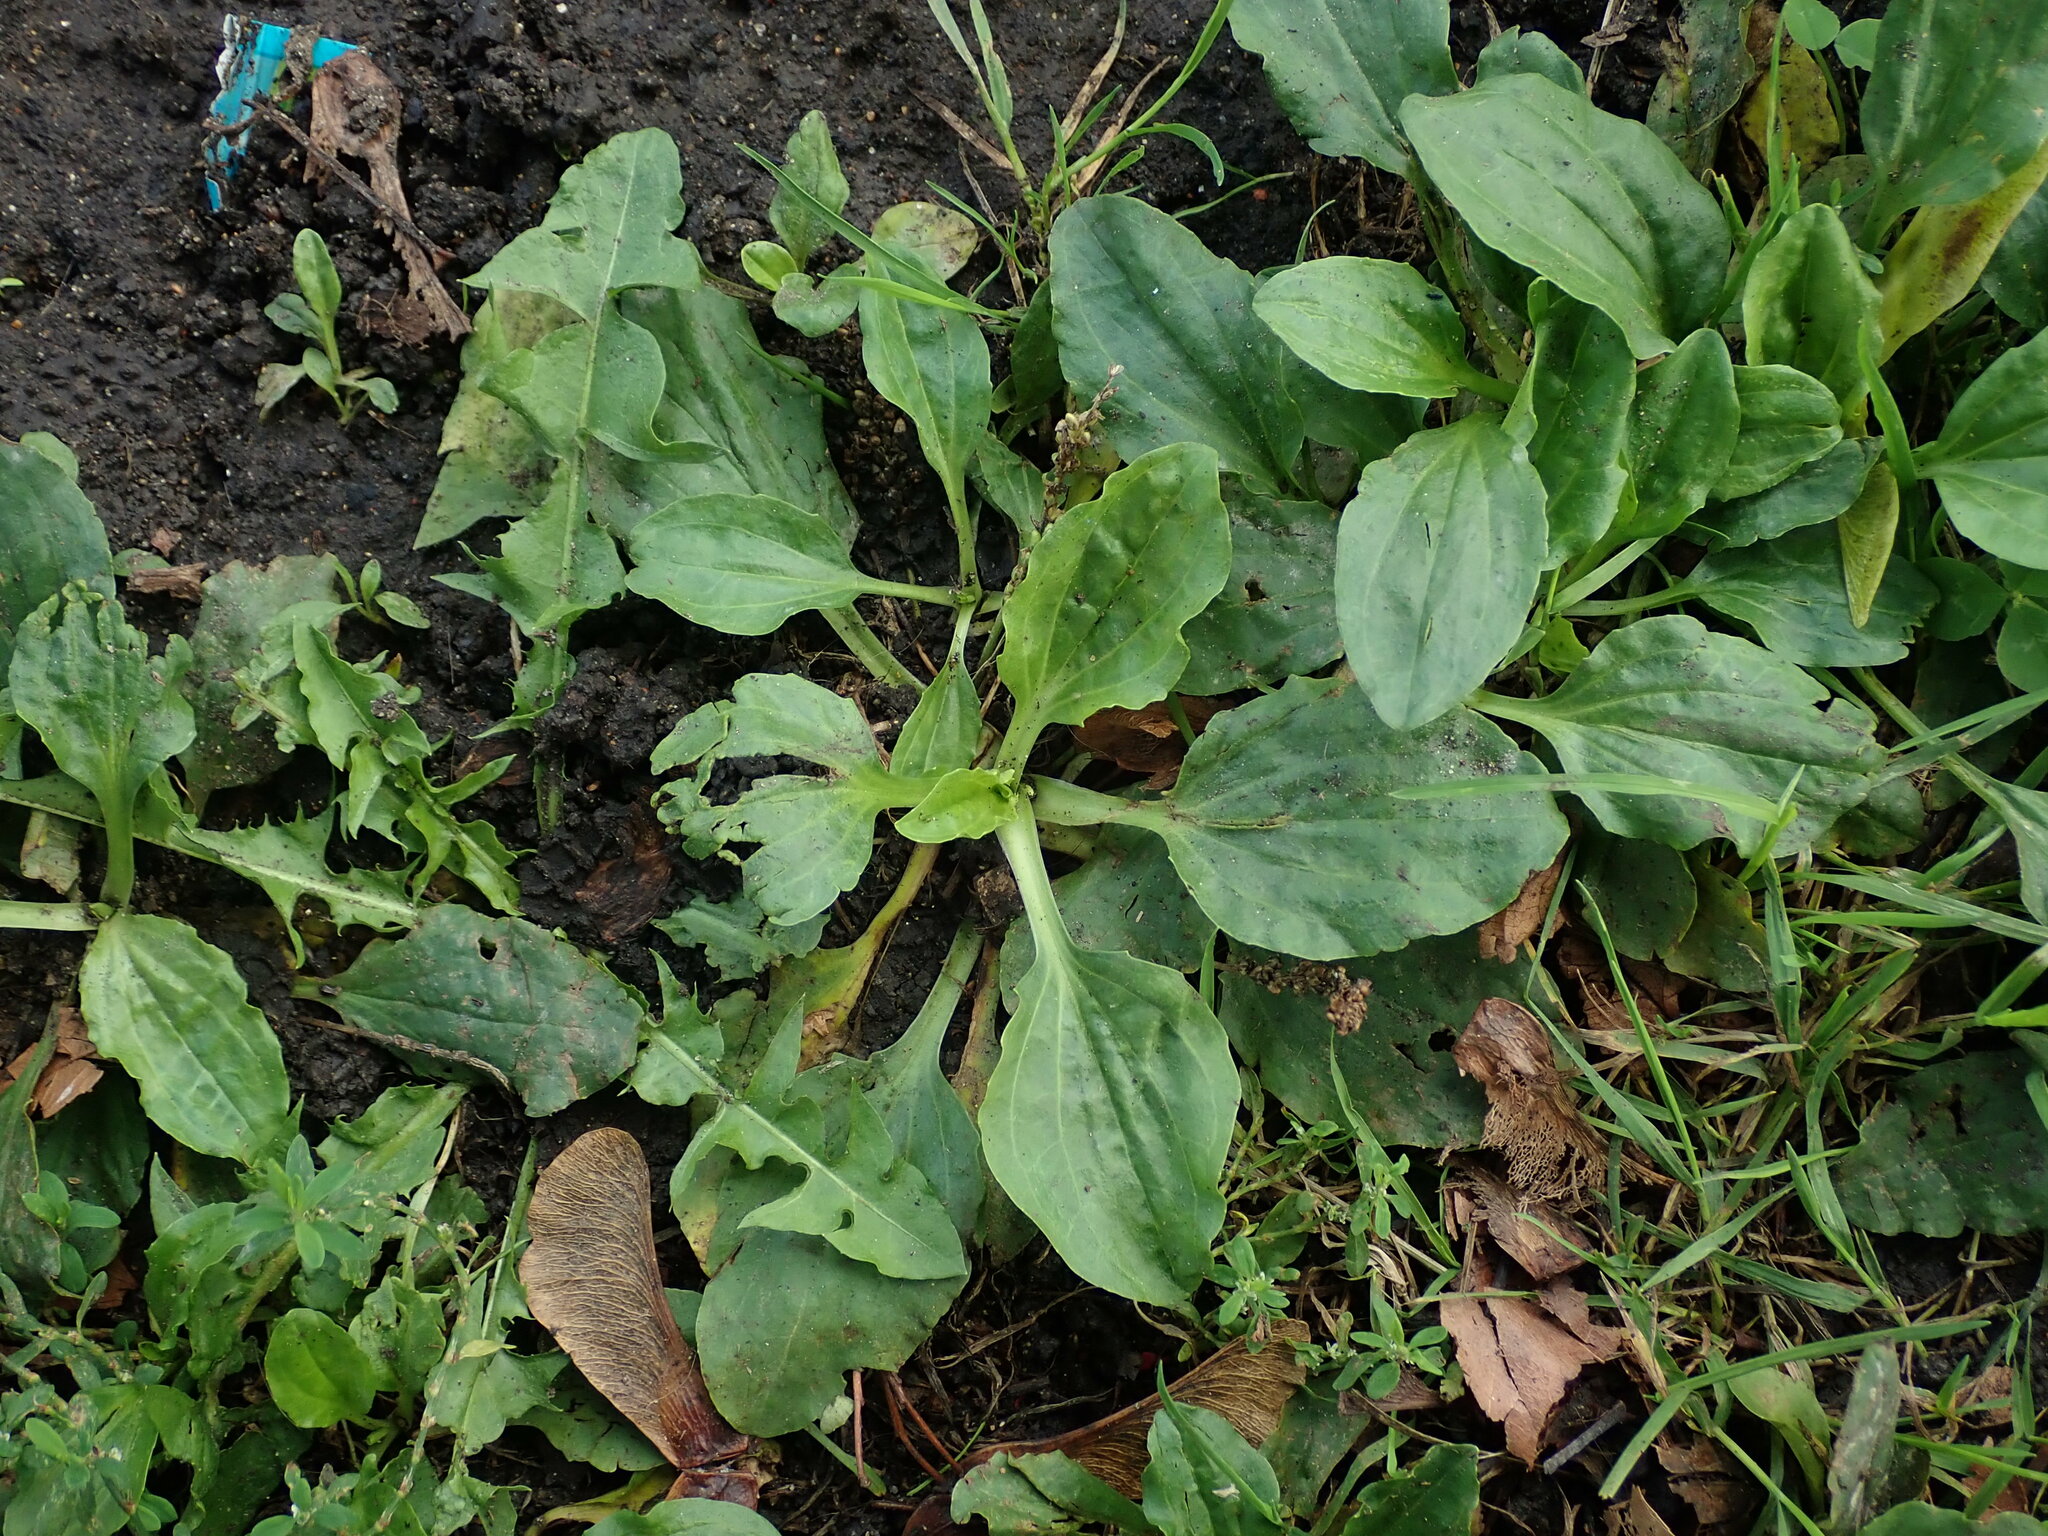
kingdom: Plantae
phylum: Tracheophyta
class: Magnoliopsida
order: Lamiales
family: Plantaginaceae
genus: Plantago
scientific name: Plantago major
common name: Common plantain
